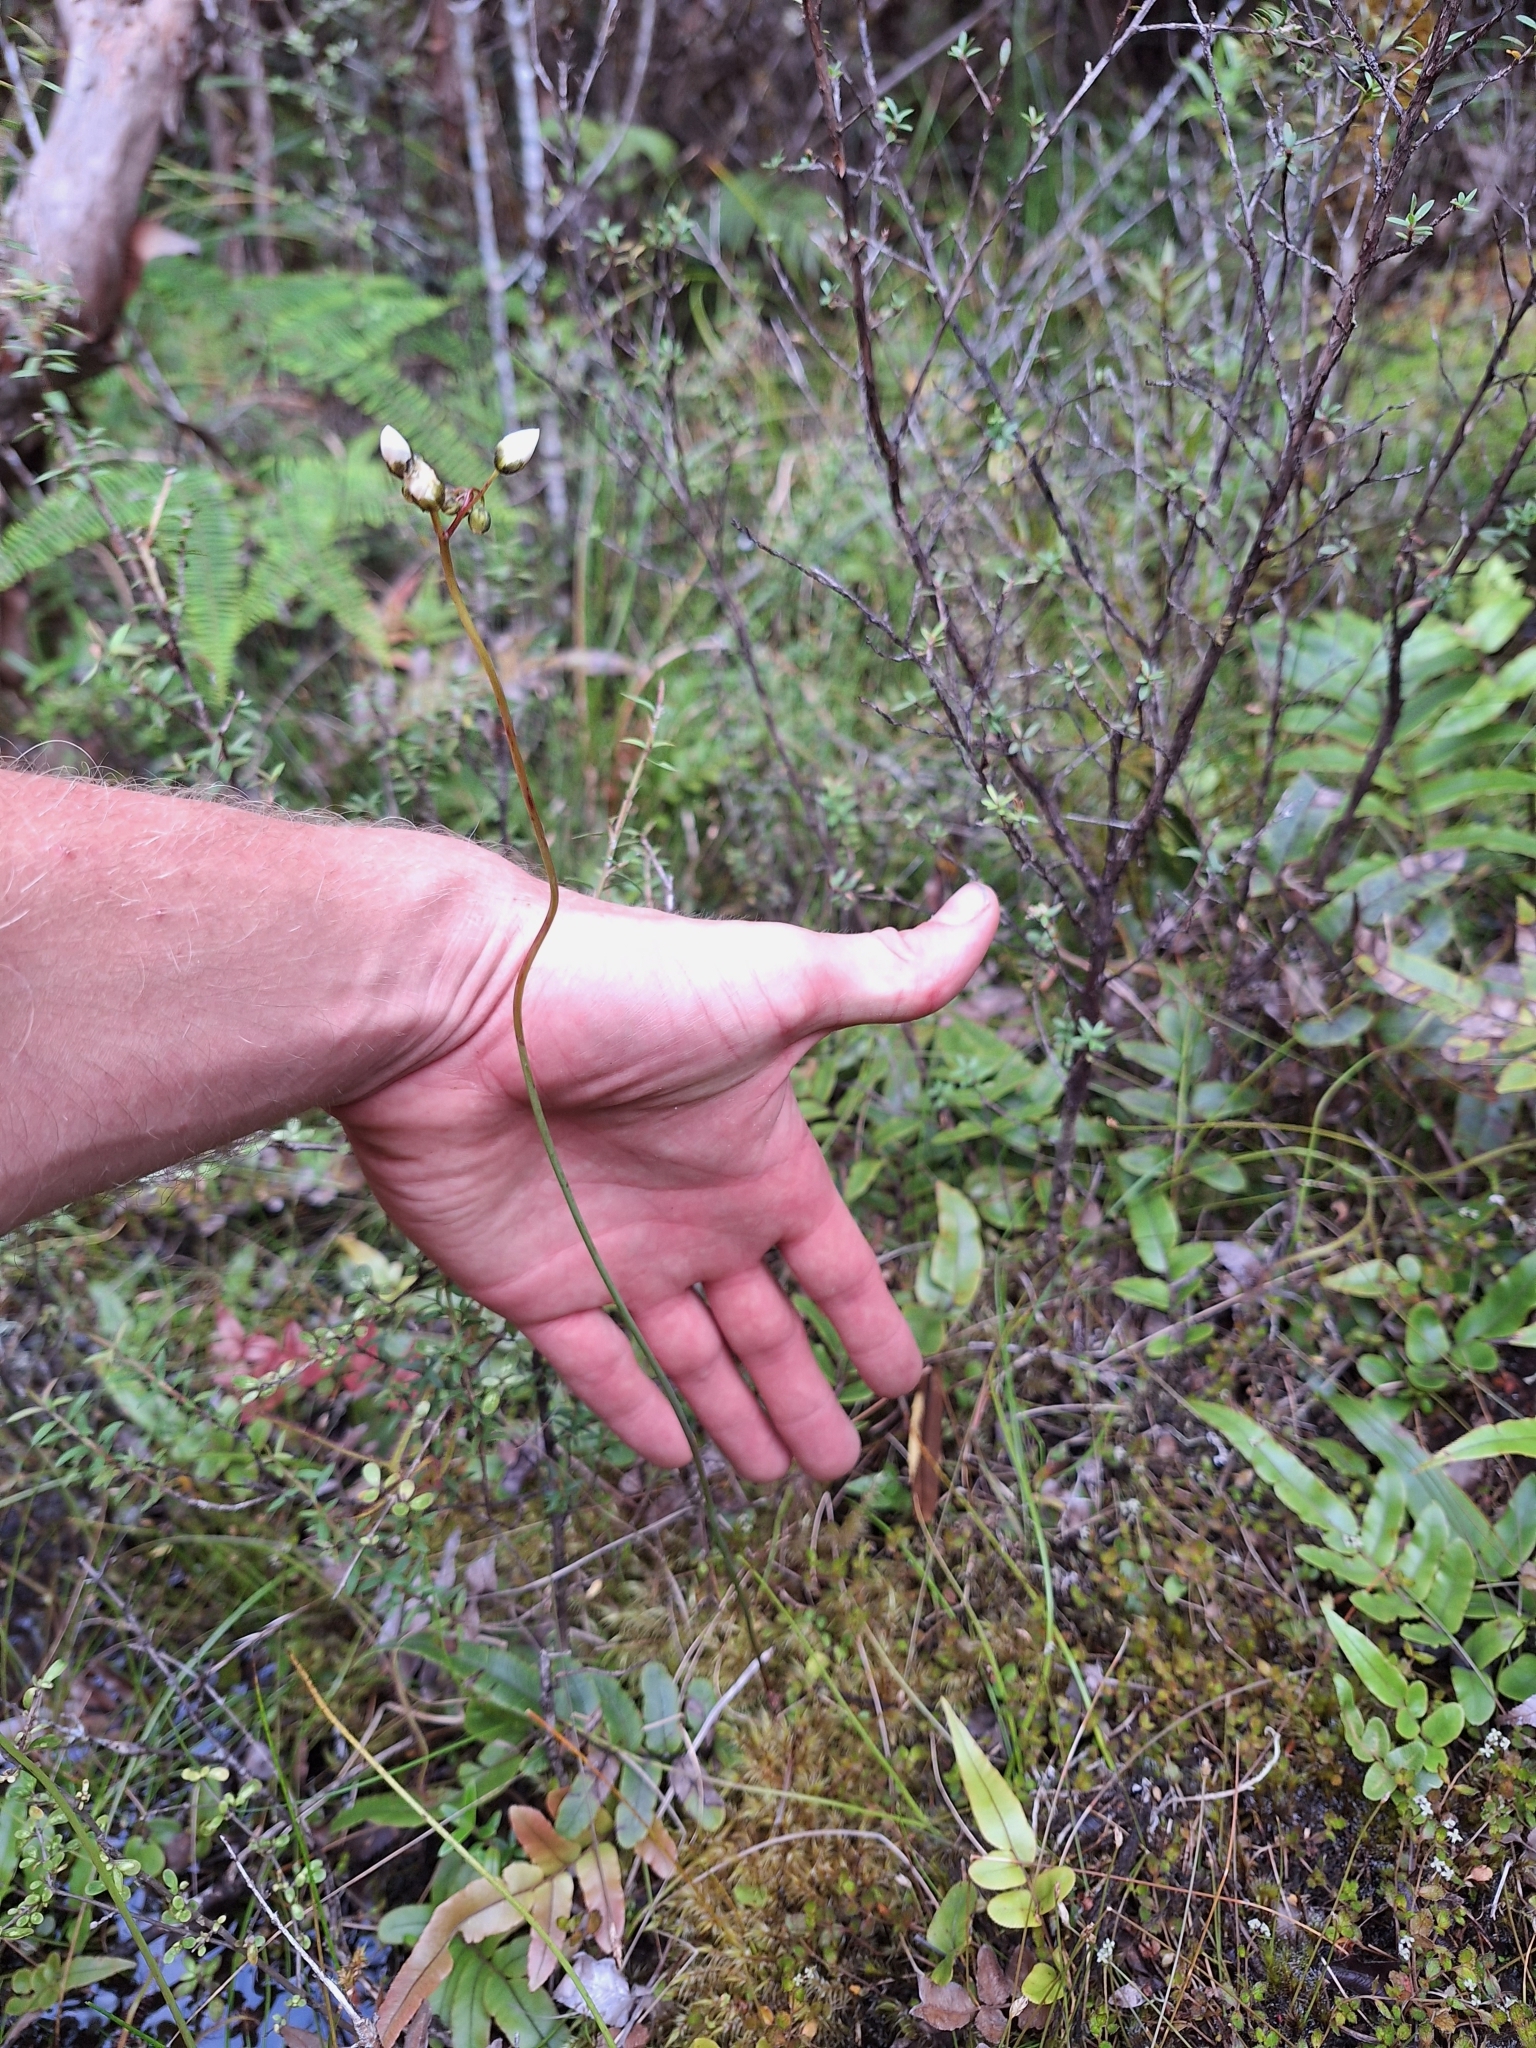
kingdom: Plantae
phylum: Tracheophyta
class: Magnoliopsida
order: Caryophyllales
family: Droseraceae
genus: Drosera
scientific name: Drosera binata
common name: Forked sundew
